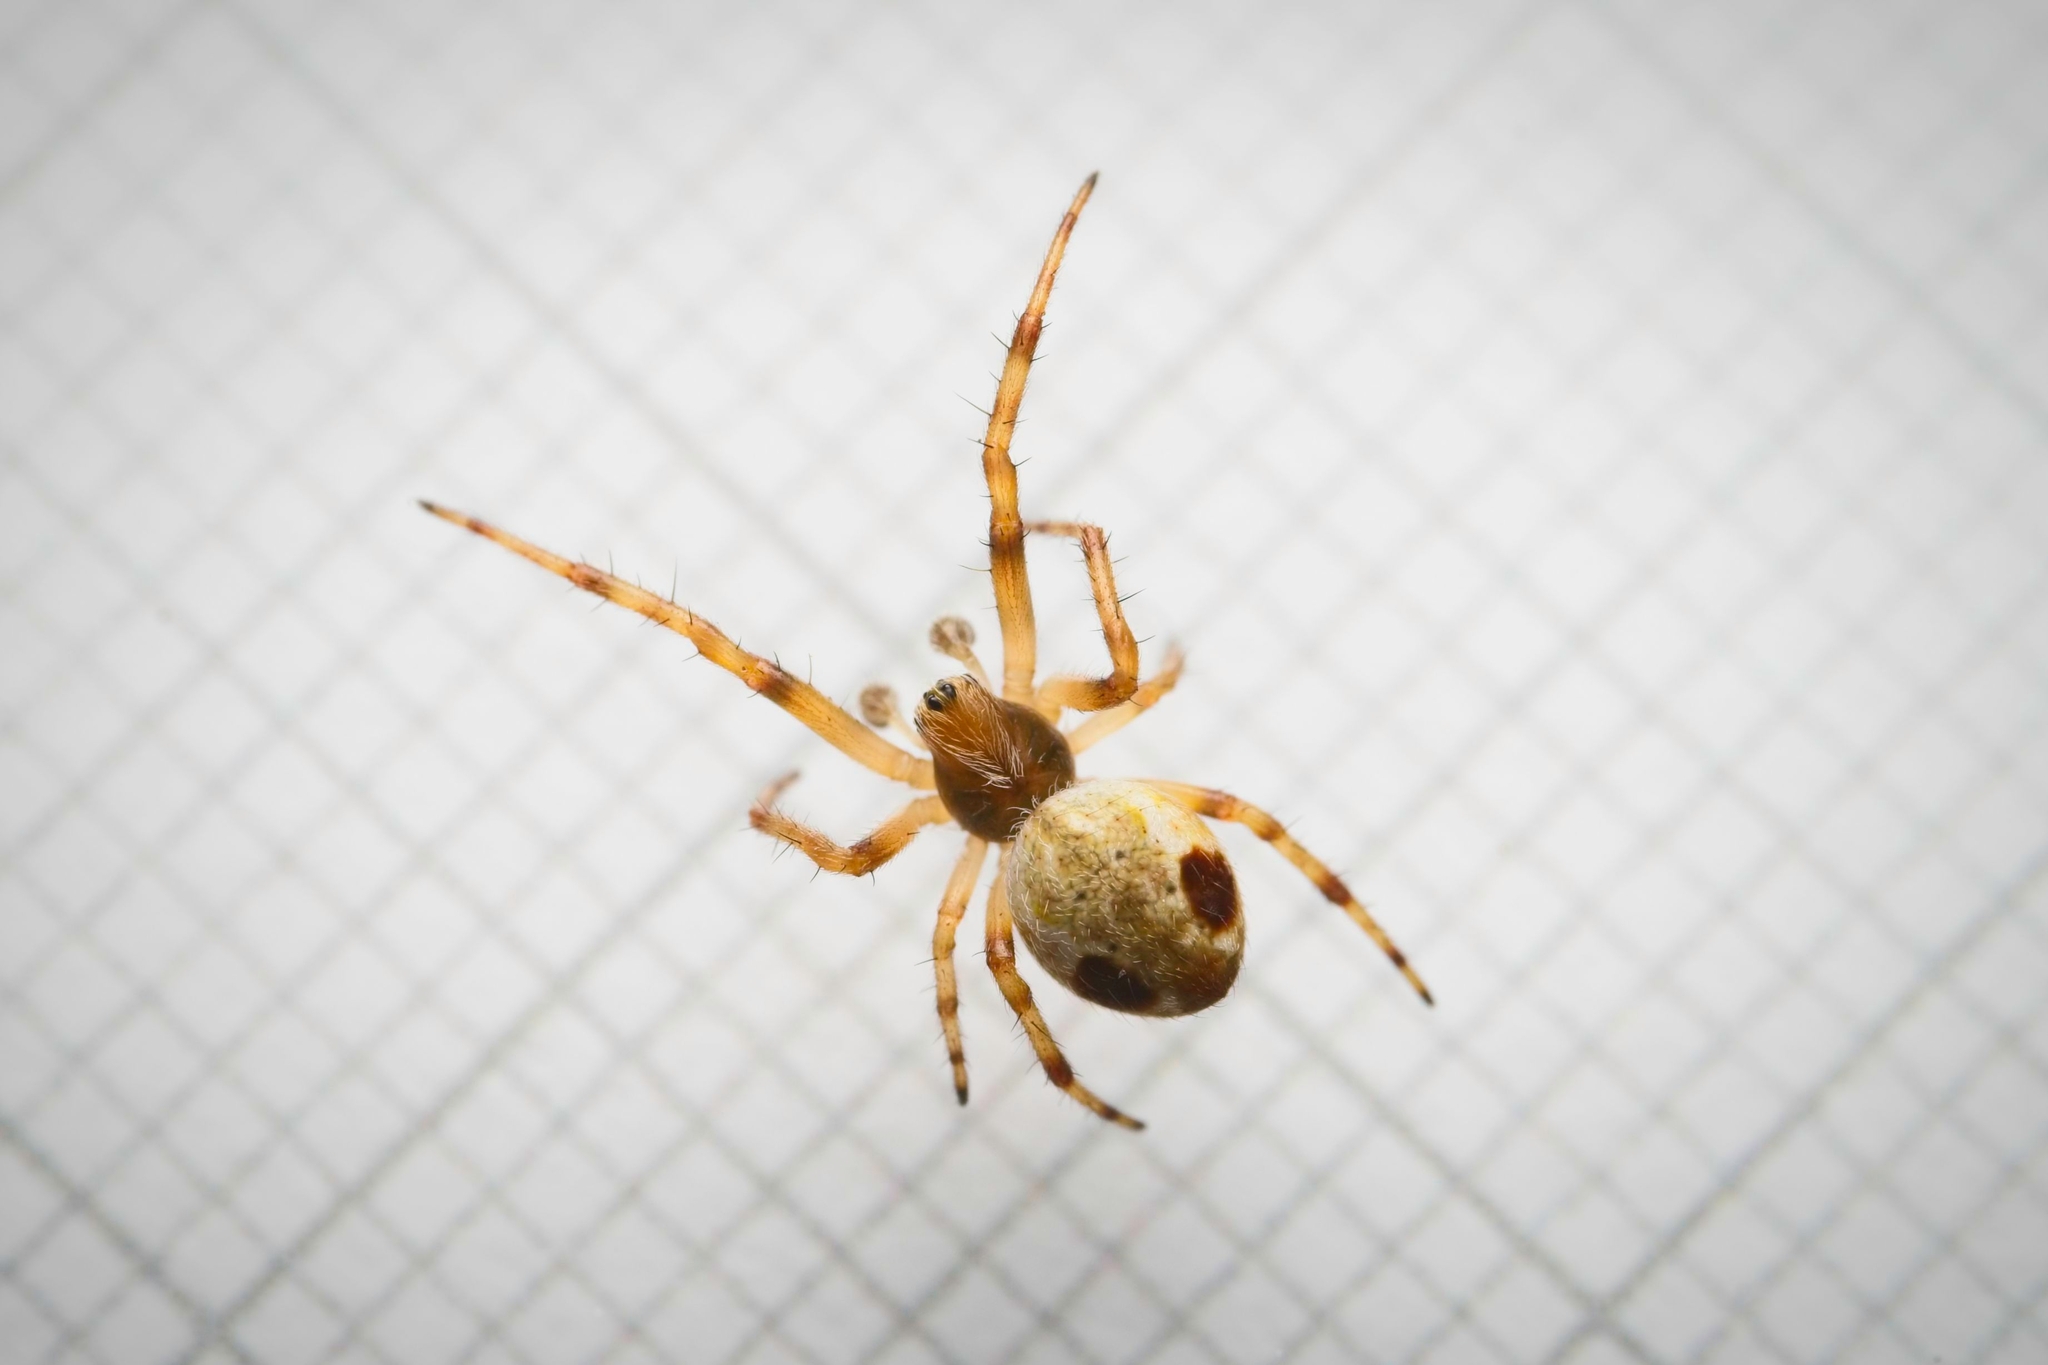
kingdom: Animalia
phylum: Arthropoda
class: Arachnida
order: Araneae
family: Araneidae
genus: Salsa
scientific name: Salsa fuliginata
